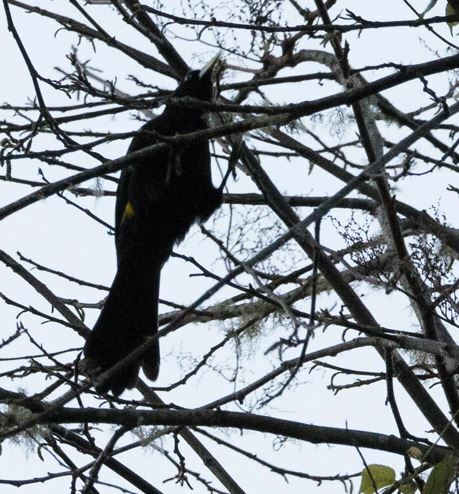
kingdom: Animalia
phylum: Chordata
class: Aves
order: Passeriformes
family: Icteridae
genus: Cacicus
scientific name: Cacicus chrysonotus
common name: Southern mountain cacique
